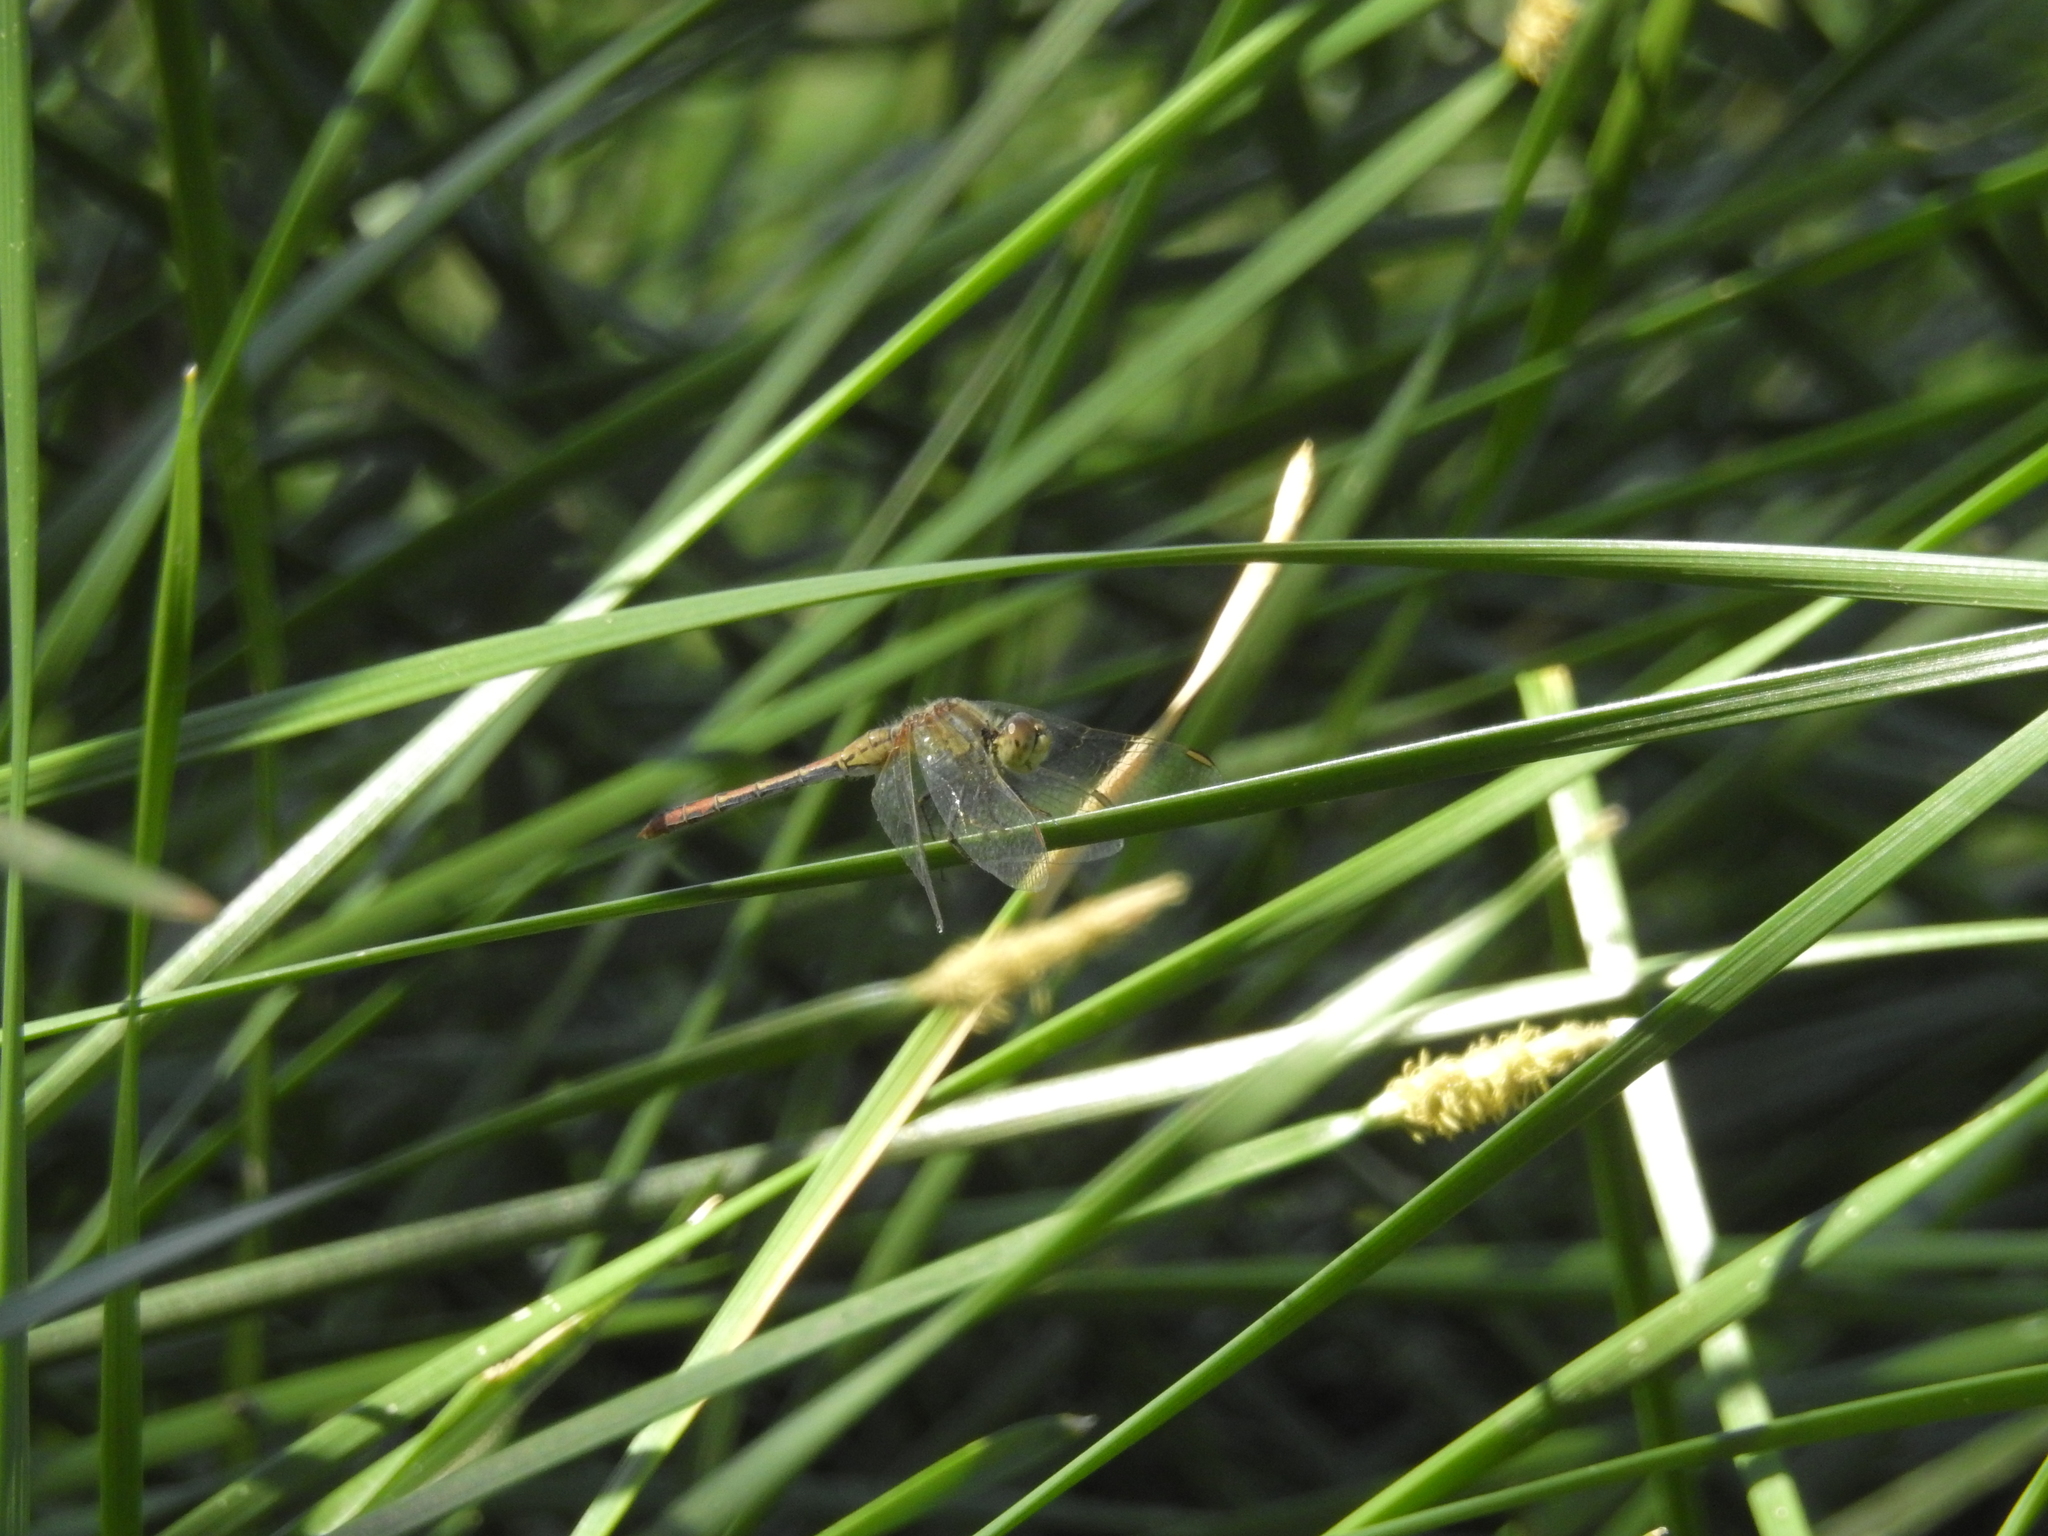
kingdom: Animalia
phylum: Arthropoda
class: Insecta
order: Odonata
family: Libellulidae
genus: Diplacodes
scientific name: Diplacodes bipunctata
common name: Red percher dragonfly
